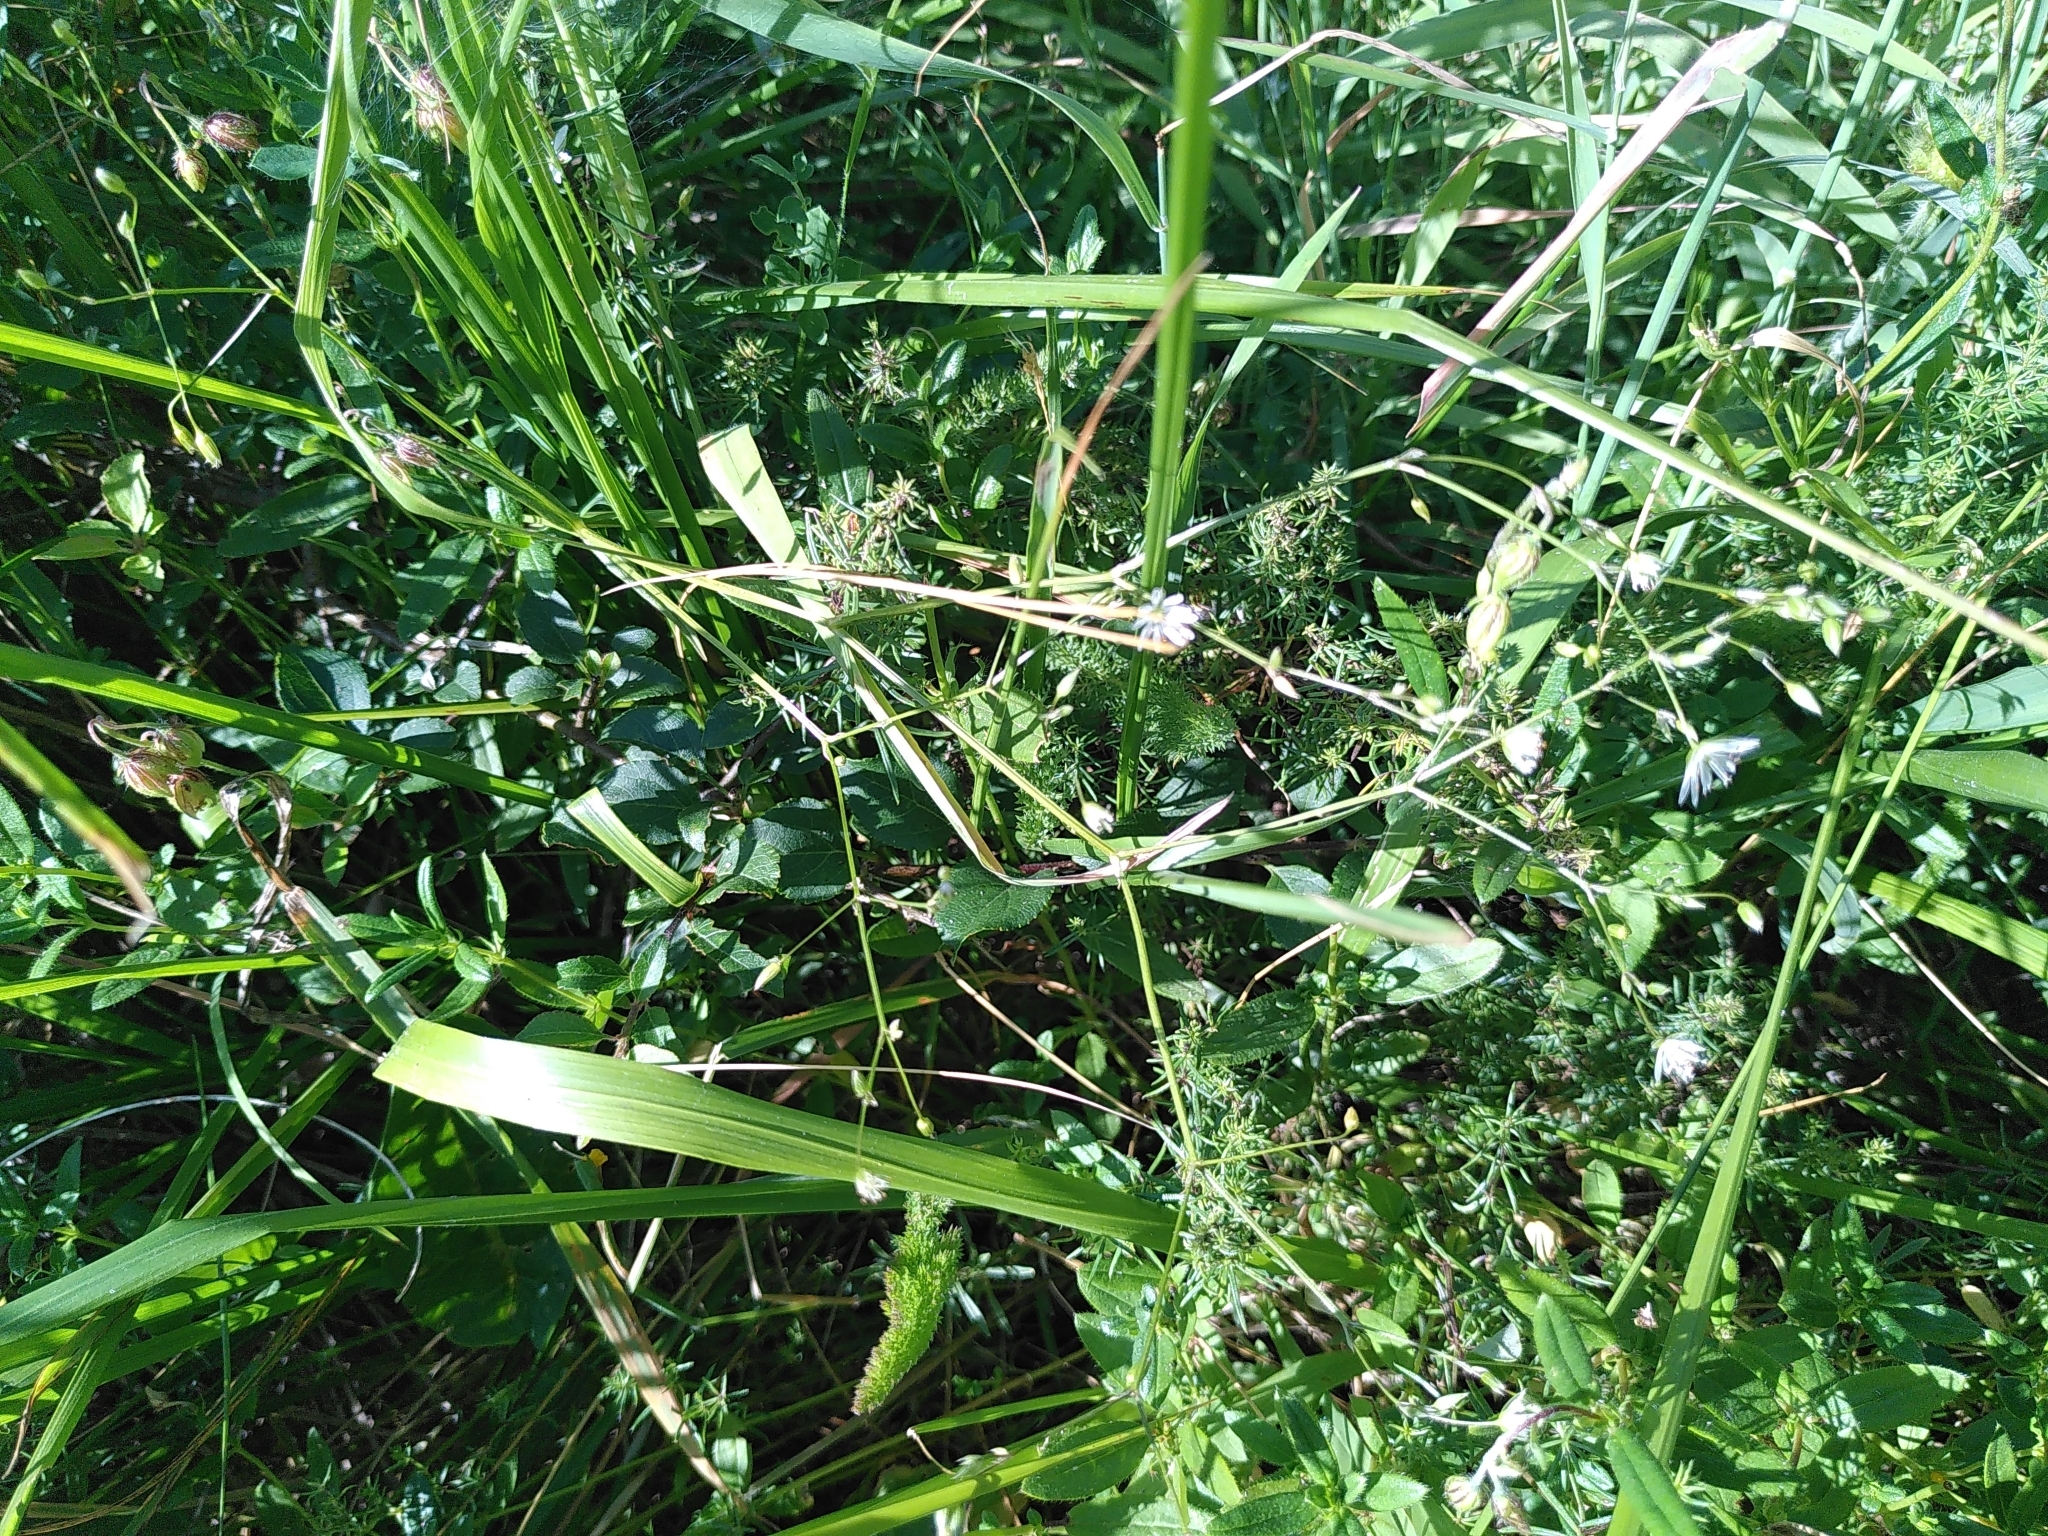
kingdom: Plantae
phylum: Tracheophyta
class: Magnoliopsida
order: Caryophyllales
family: Caryophyllaceae
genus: Stellaria
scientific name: Stellaria graminea
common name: Grass-like starwort
